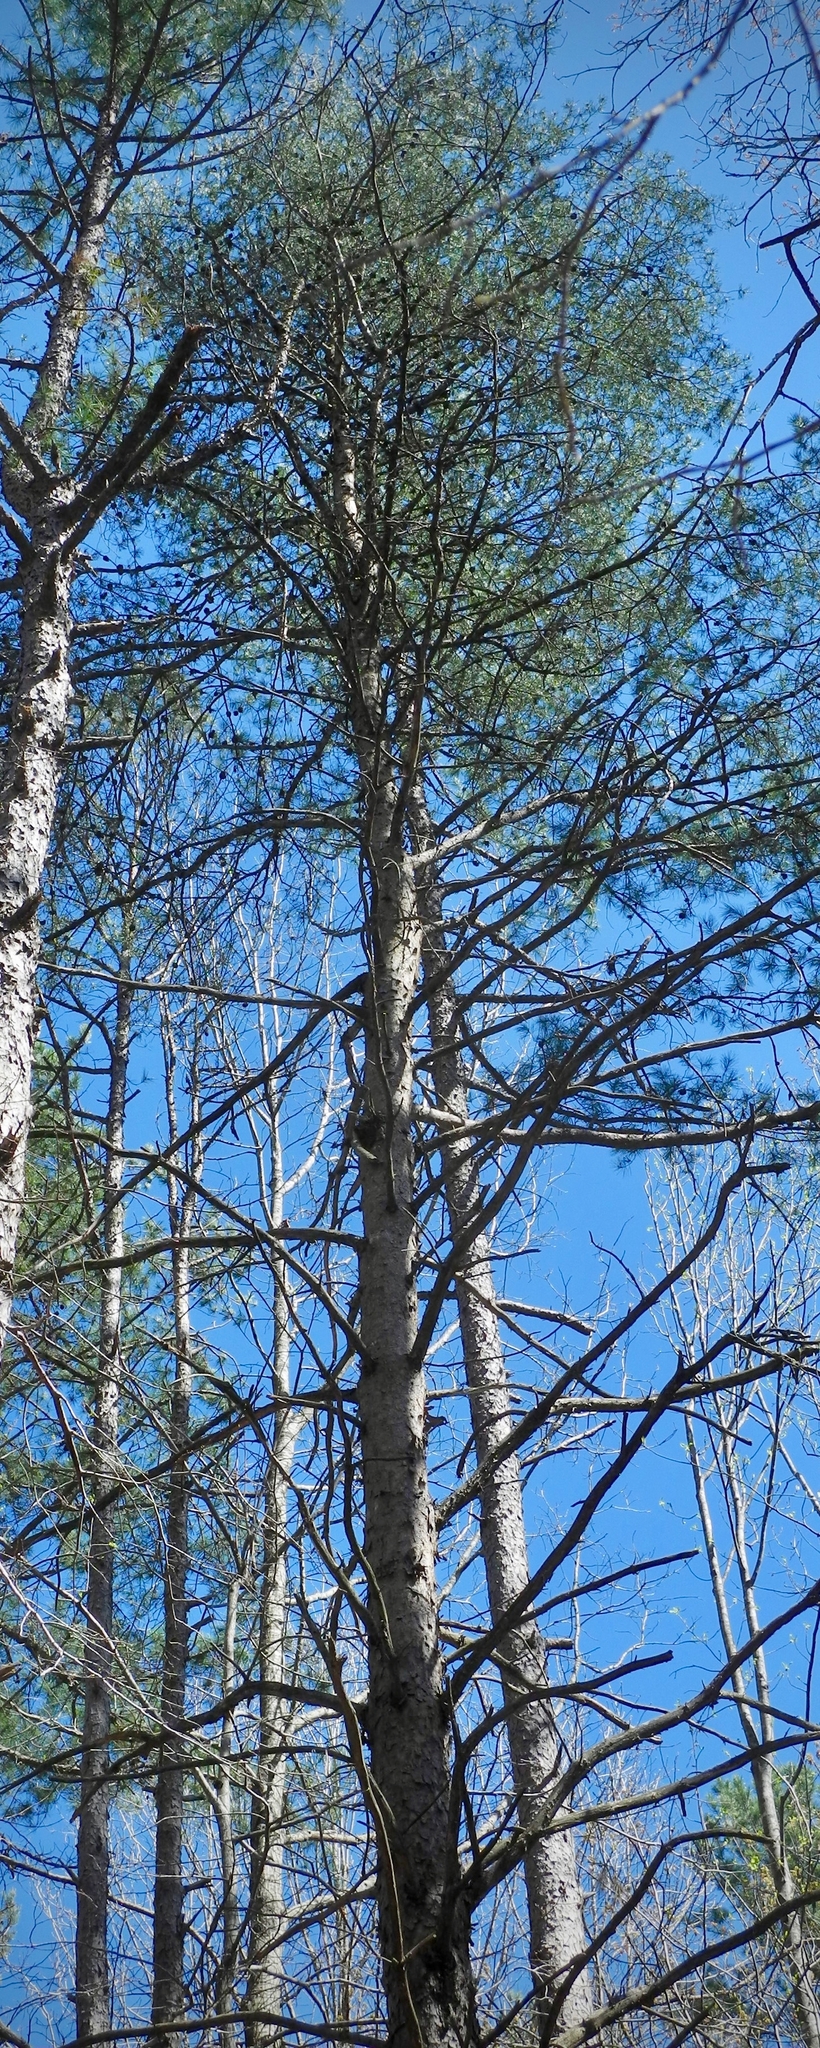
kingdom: Plantae
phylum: Tracheophyta
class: Pinopsida
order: Pinales
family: Pinaceae
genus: Pinus
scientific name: Pinus virginiana
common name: Scrub pine
